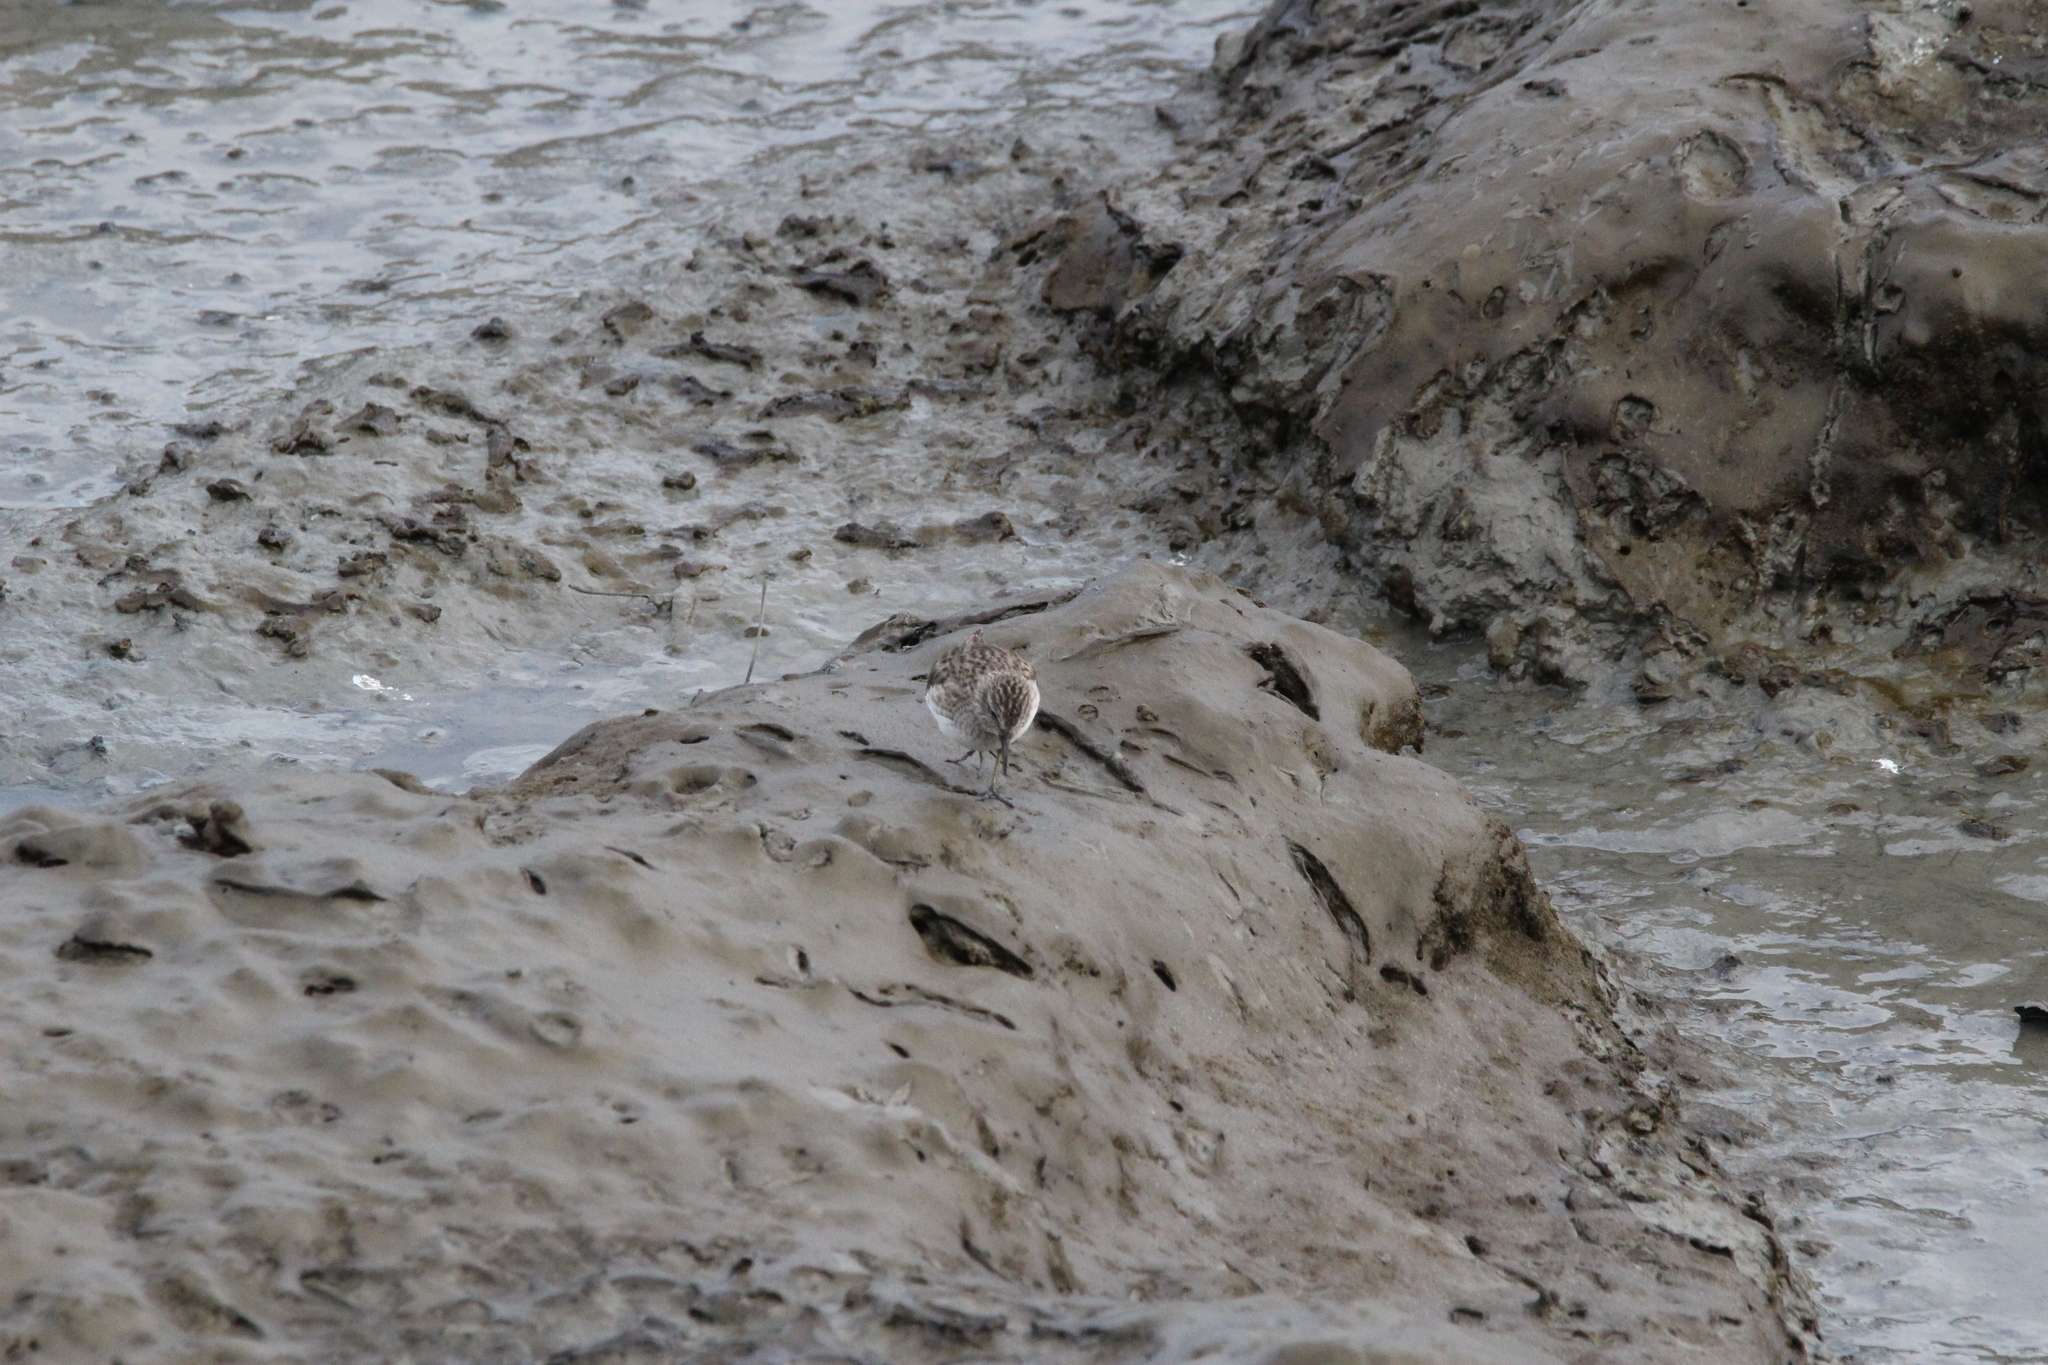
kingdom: Animalia
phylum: Chordata
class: Aves
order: Charadriiformes
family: Scolopacidae
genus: Calidris
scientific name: Calidris minutilla
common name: Least sandpiper
